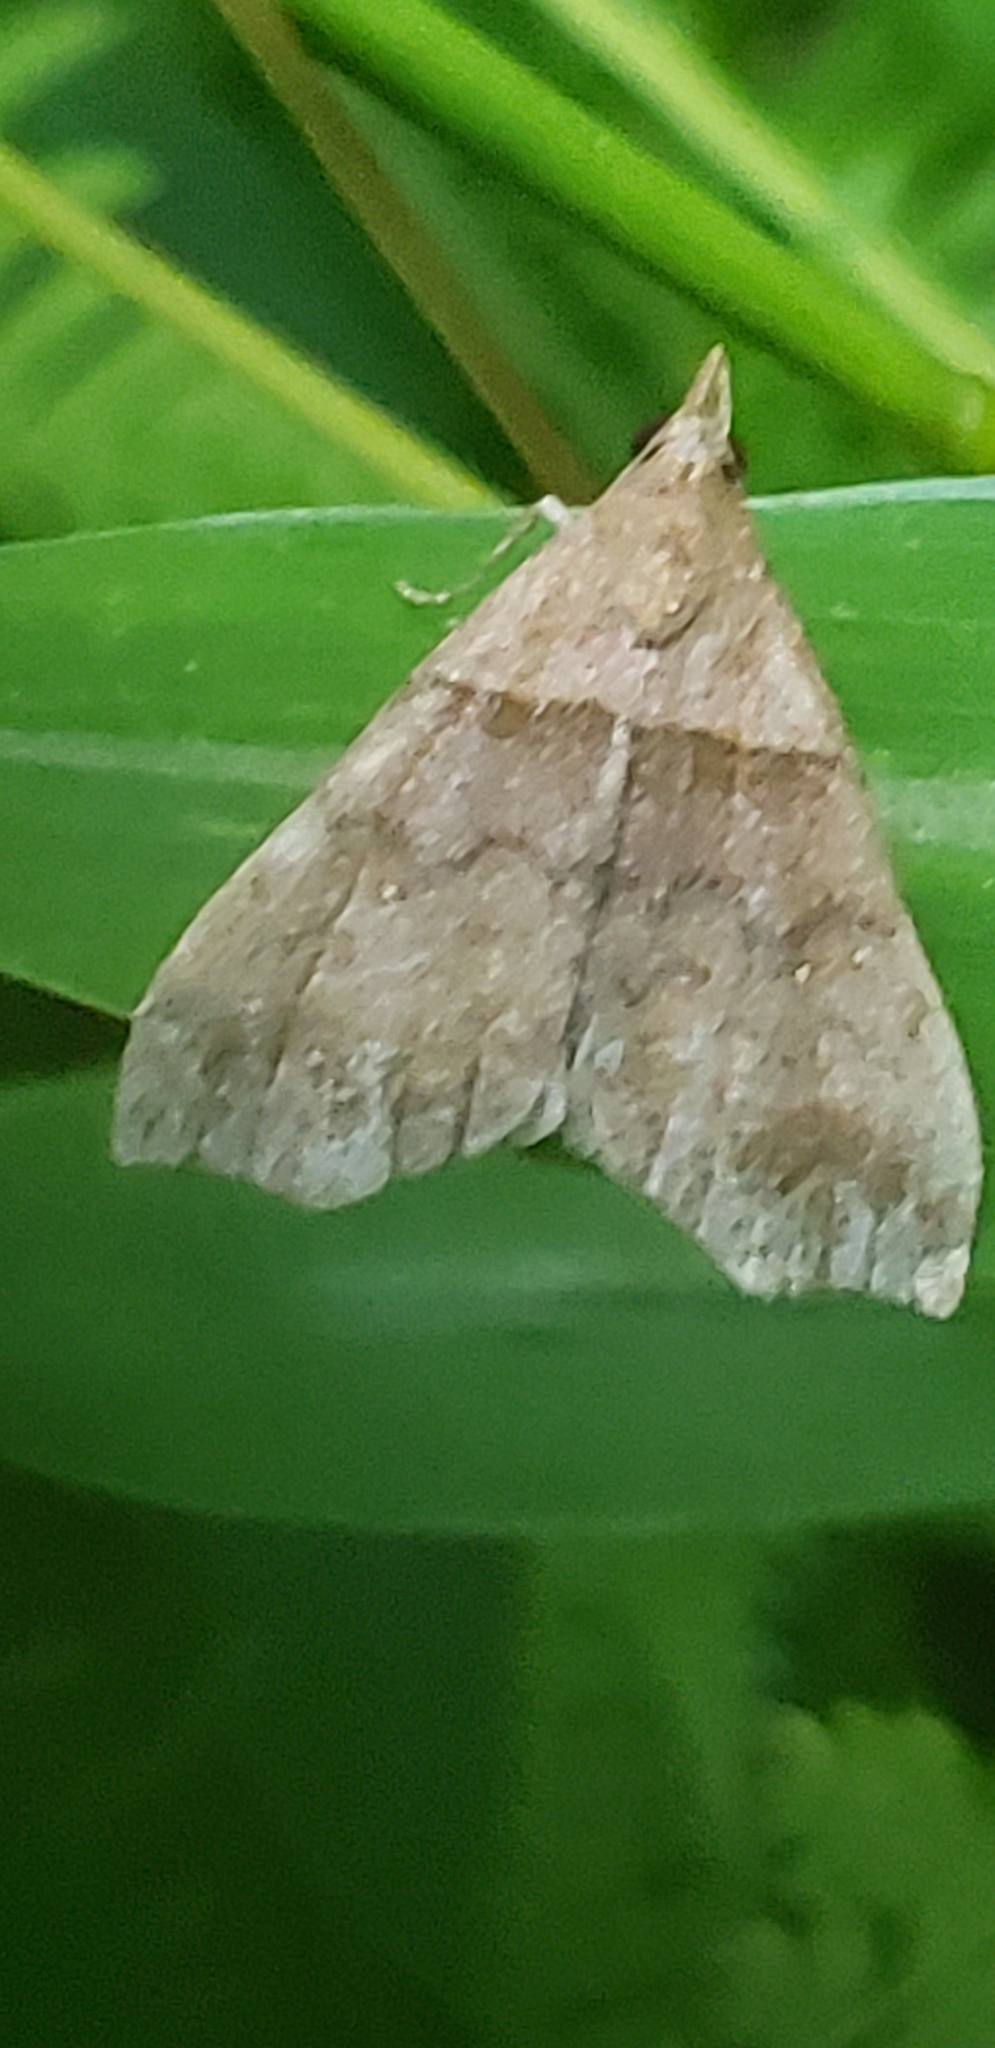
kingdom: Animalia
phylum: Arthropoda
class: Insecta
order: Lepidoptera
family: Erebidae
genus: Lascoria
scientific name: Lascoria ambigualis
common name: Ambiguous moth
